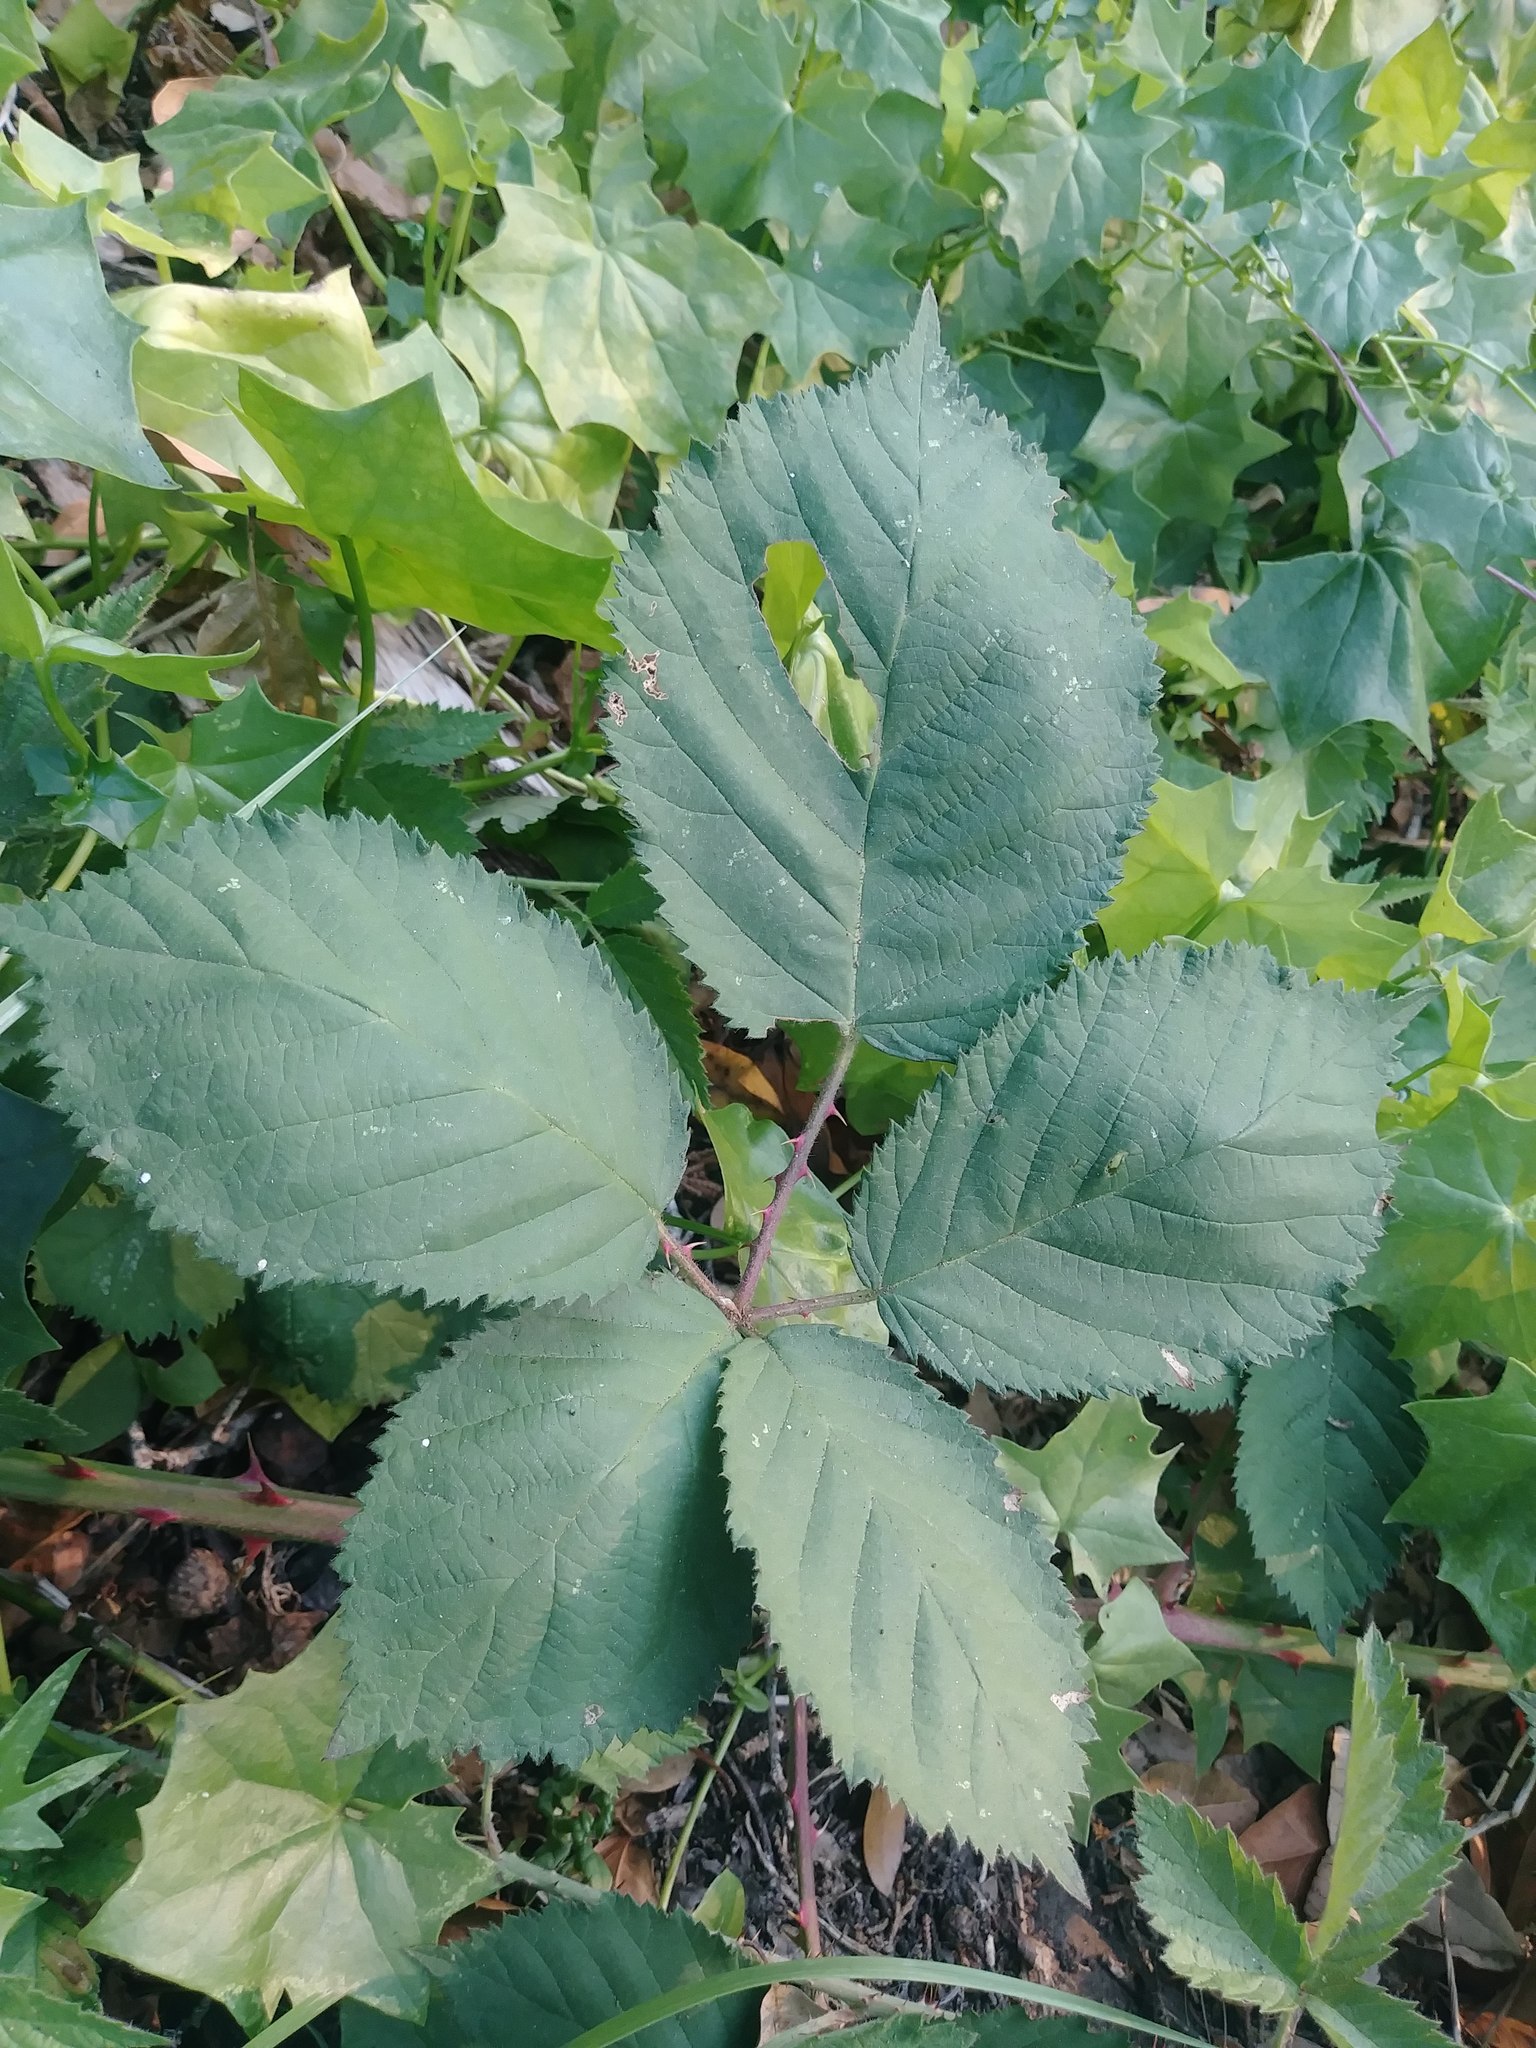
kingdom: Plantae
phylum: Tracheophyta
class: Magnoliopsida
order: Rosales
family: Rosaceae
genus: Rubus
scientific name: Rubus armeniacus
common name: Himalayan blackberry
